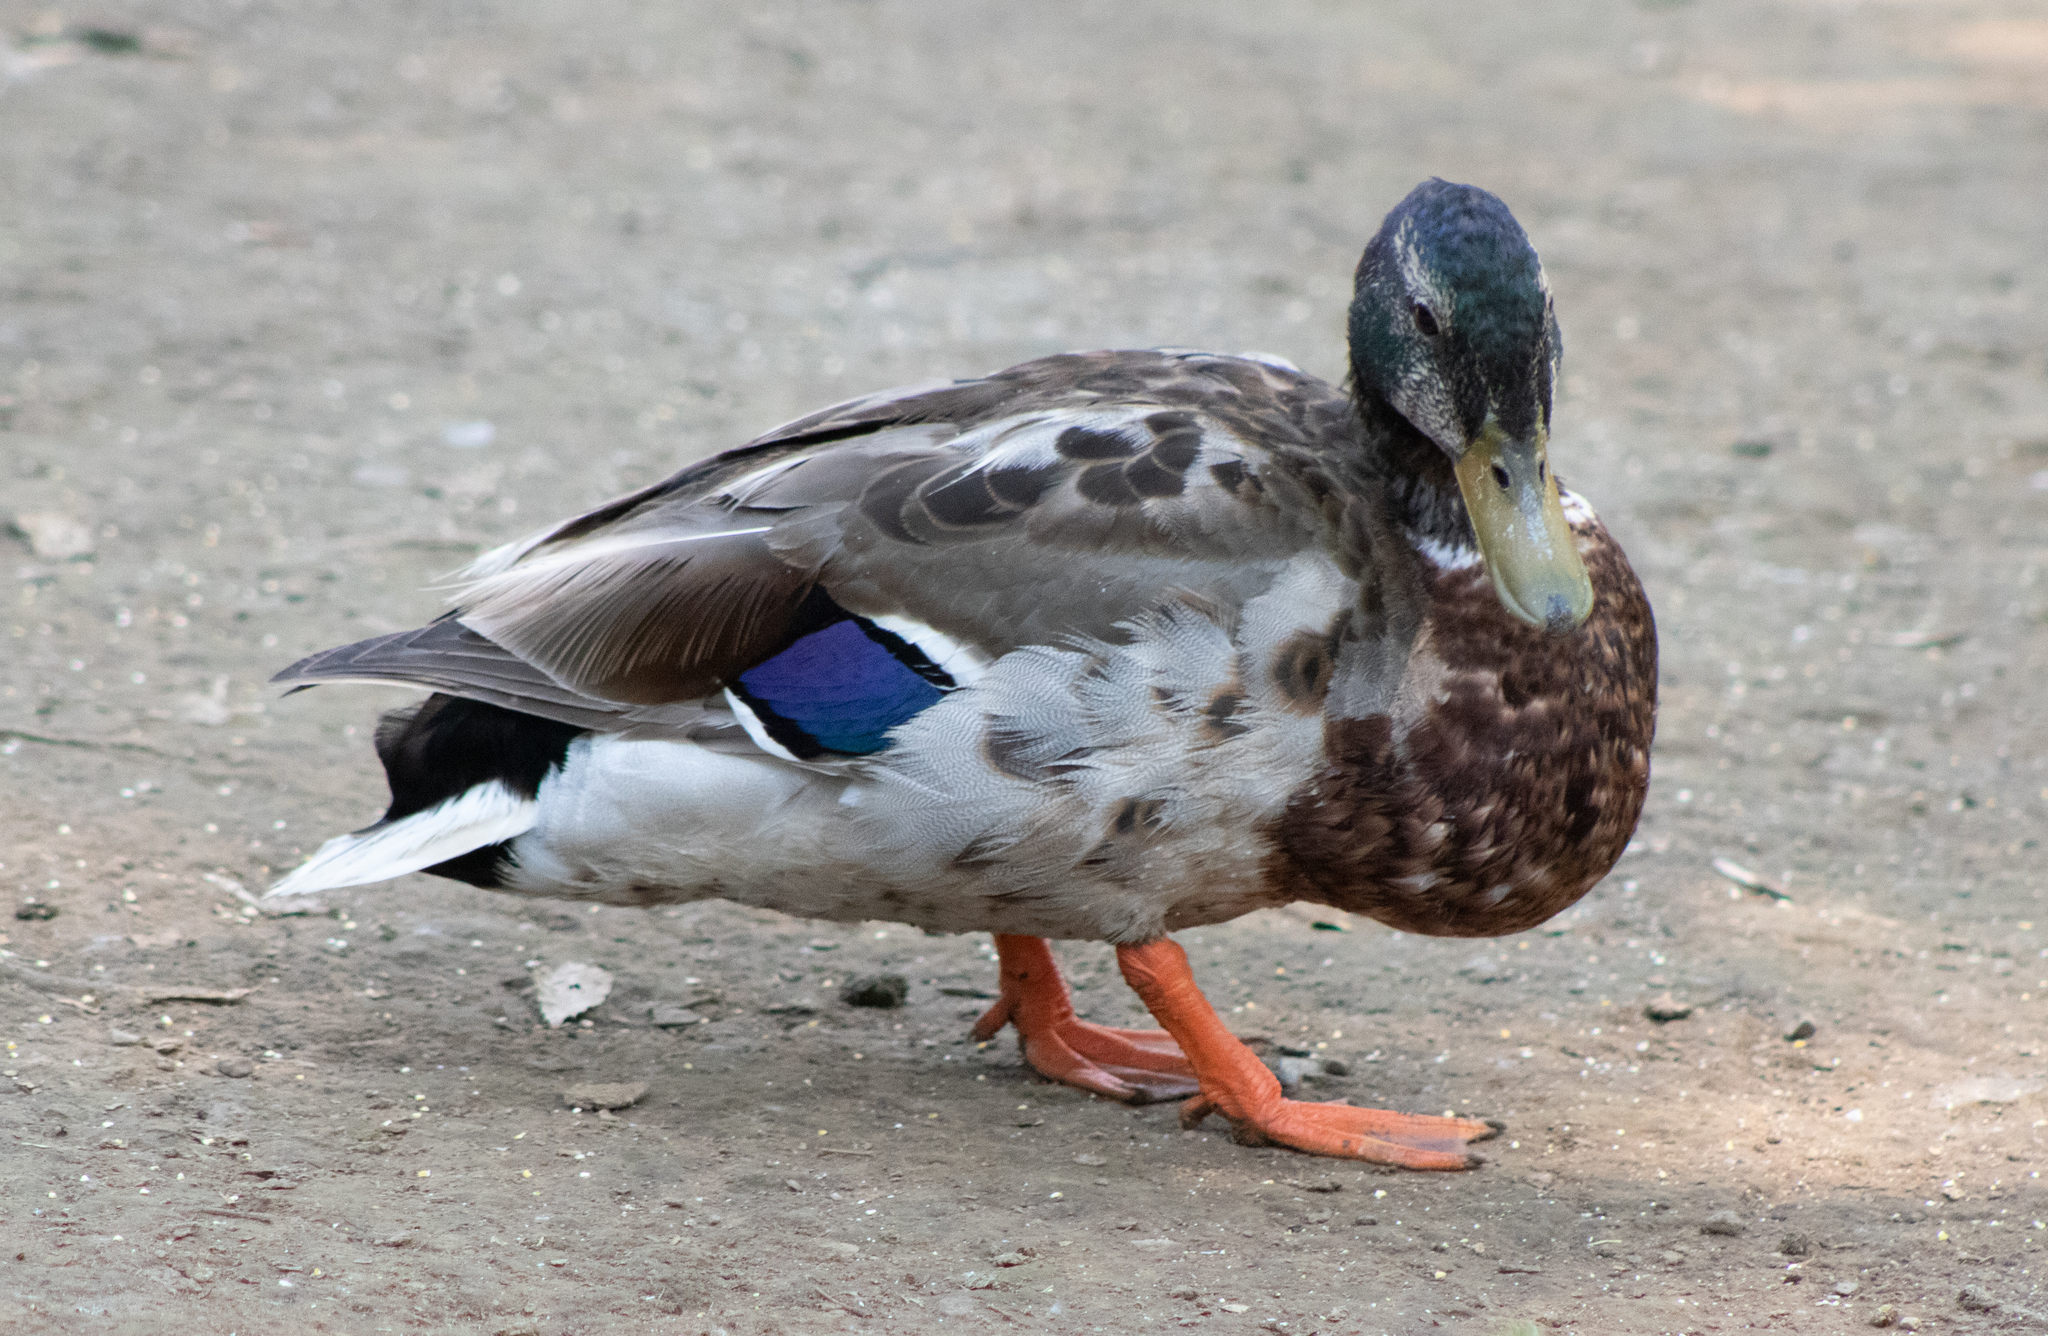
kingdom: Animalia
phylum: Chordata
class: Aves
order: Anseriformes
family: Anatidae
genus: Anas
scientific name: Anas platyrhynchos
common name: Mallard
